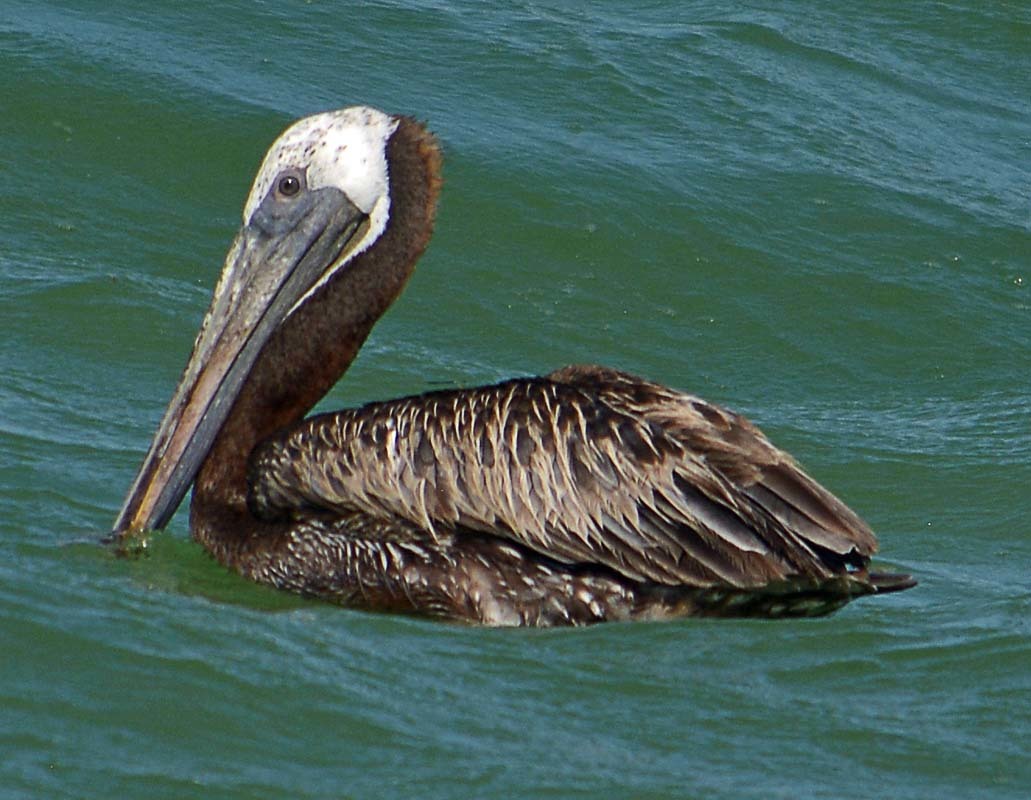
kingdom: Animalia
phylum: Chordata
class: Aves
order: Pelecaniformes
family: Pelecanidae
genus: Pelecanus
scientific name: Pelecanus occidentalis
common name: Brown pelican
